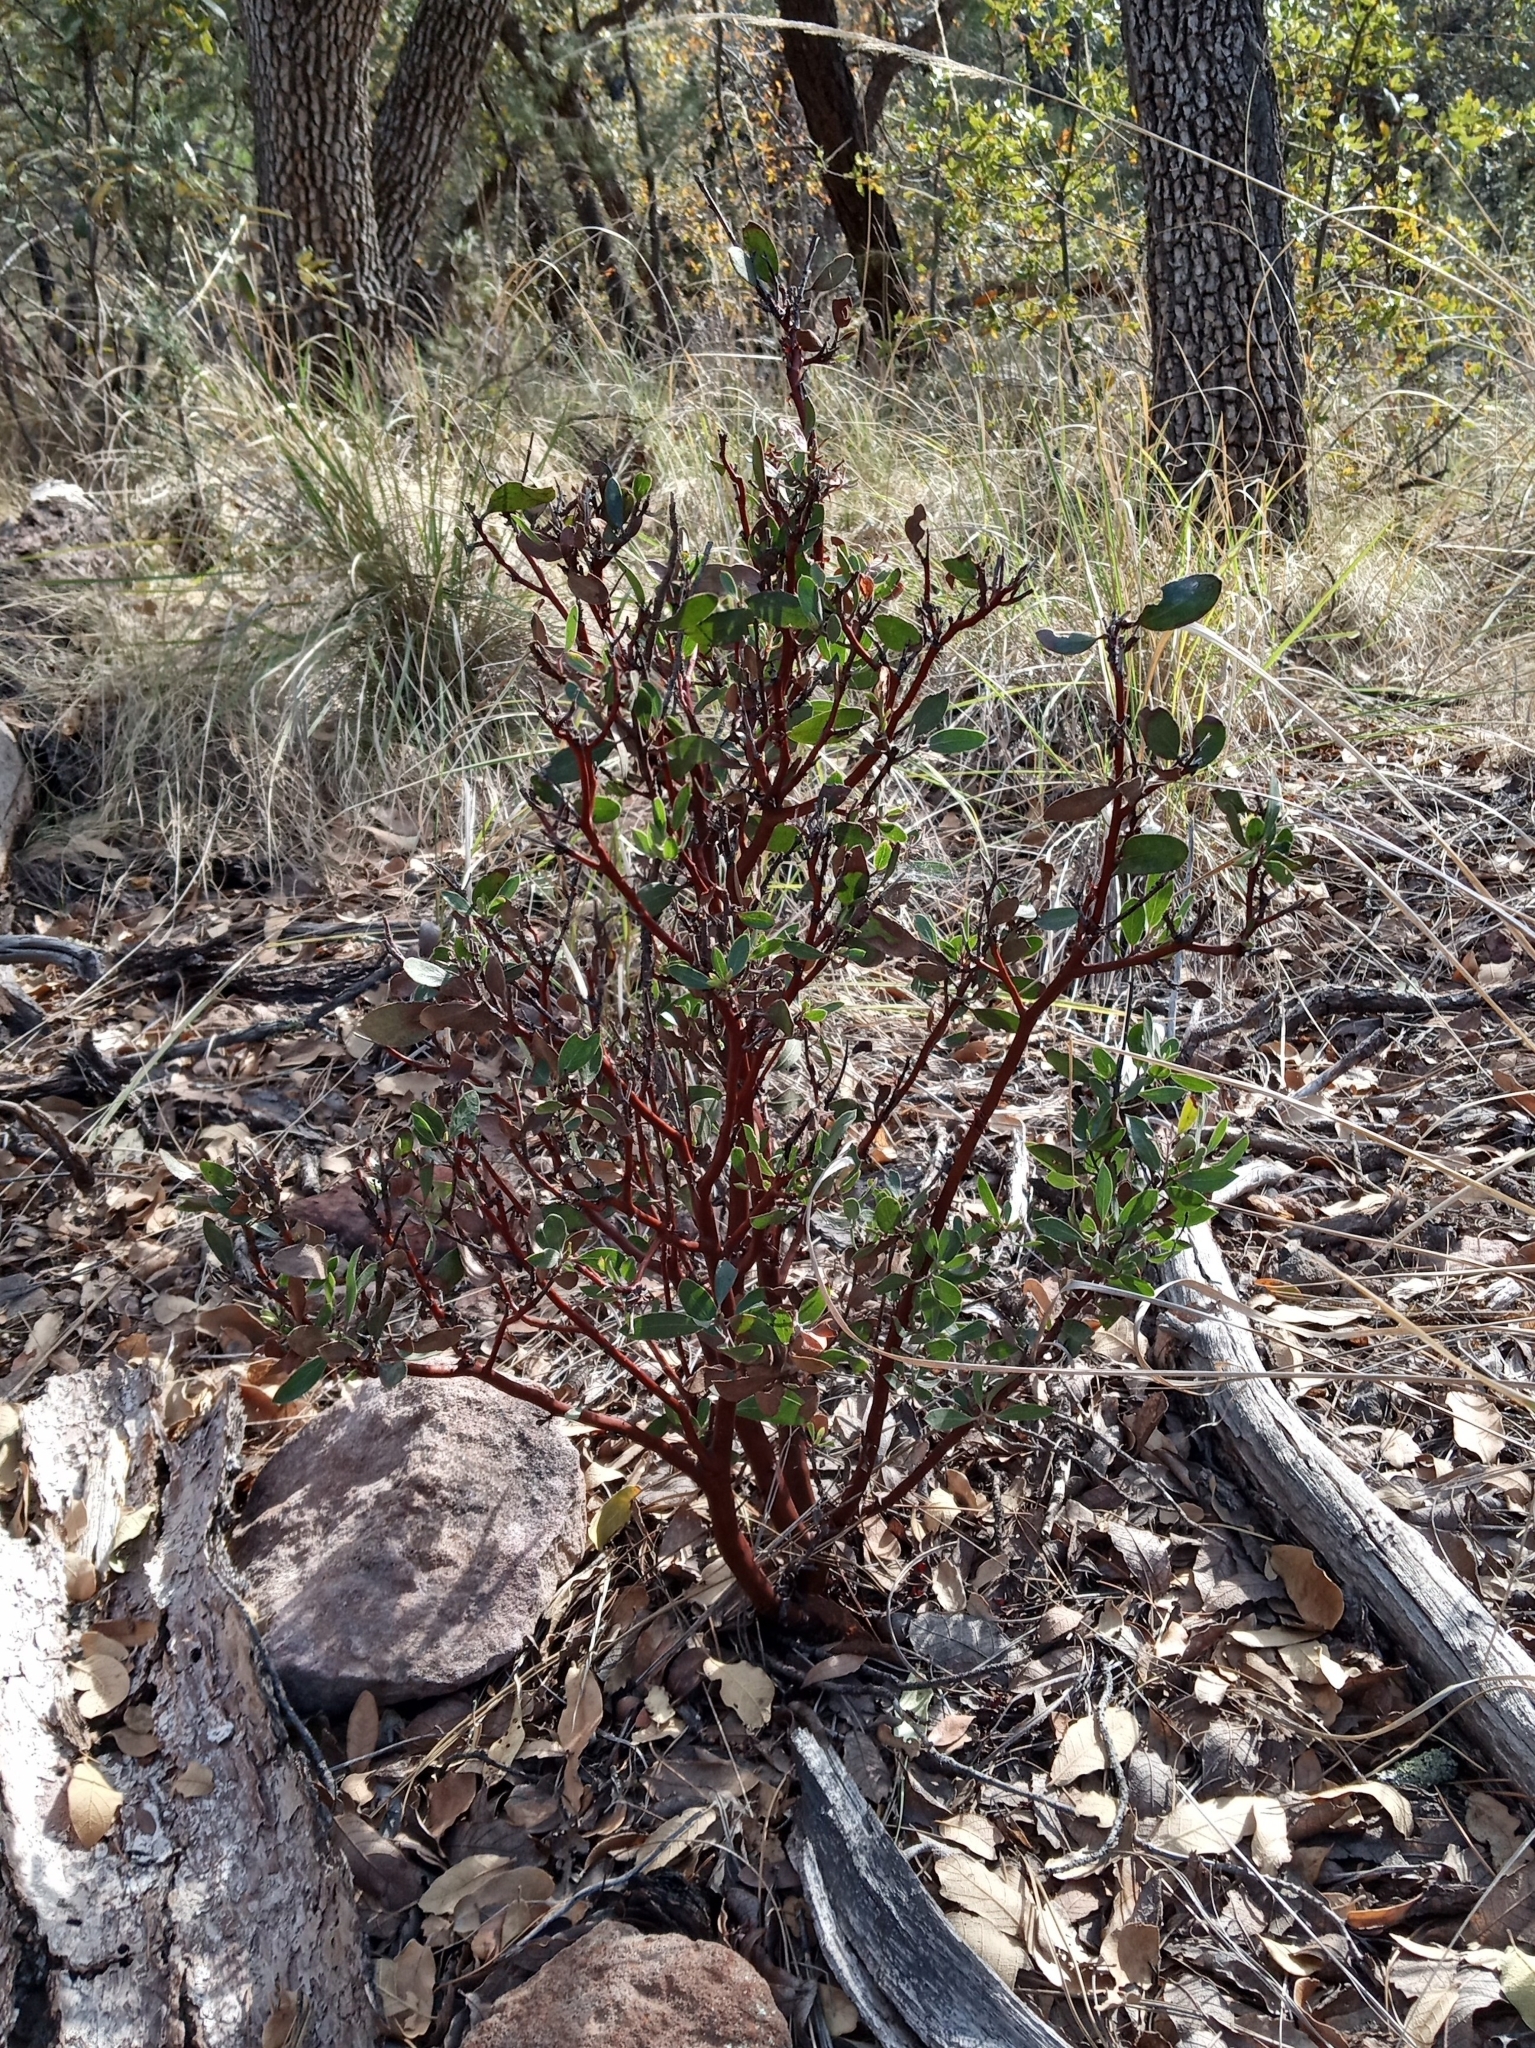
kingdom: Plantae
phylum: Tracheophyta
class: Magnoliopsida
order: Ericales
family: Ericaceae
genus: Arctostaphylos
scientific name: Arctostaphylos pungens
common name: Mexican manzanita
